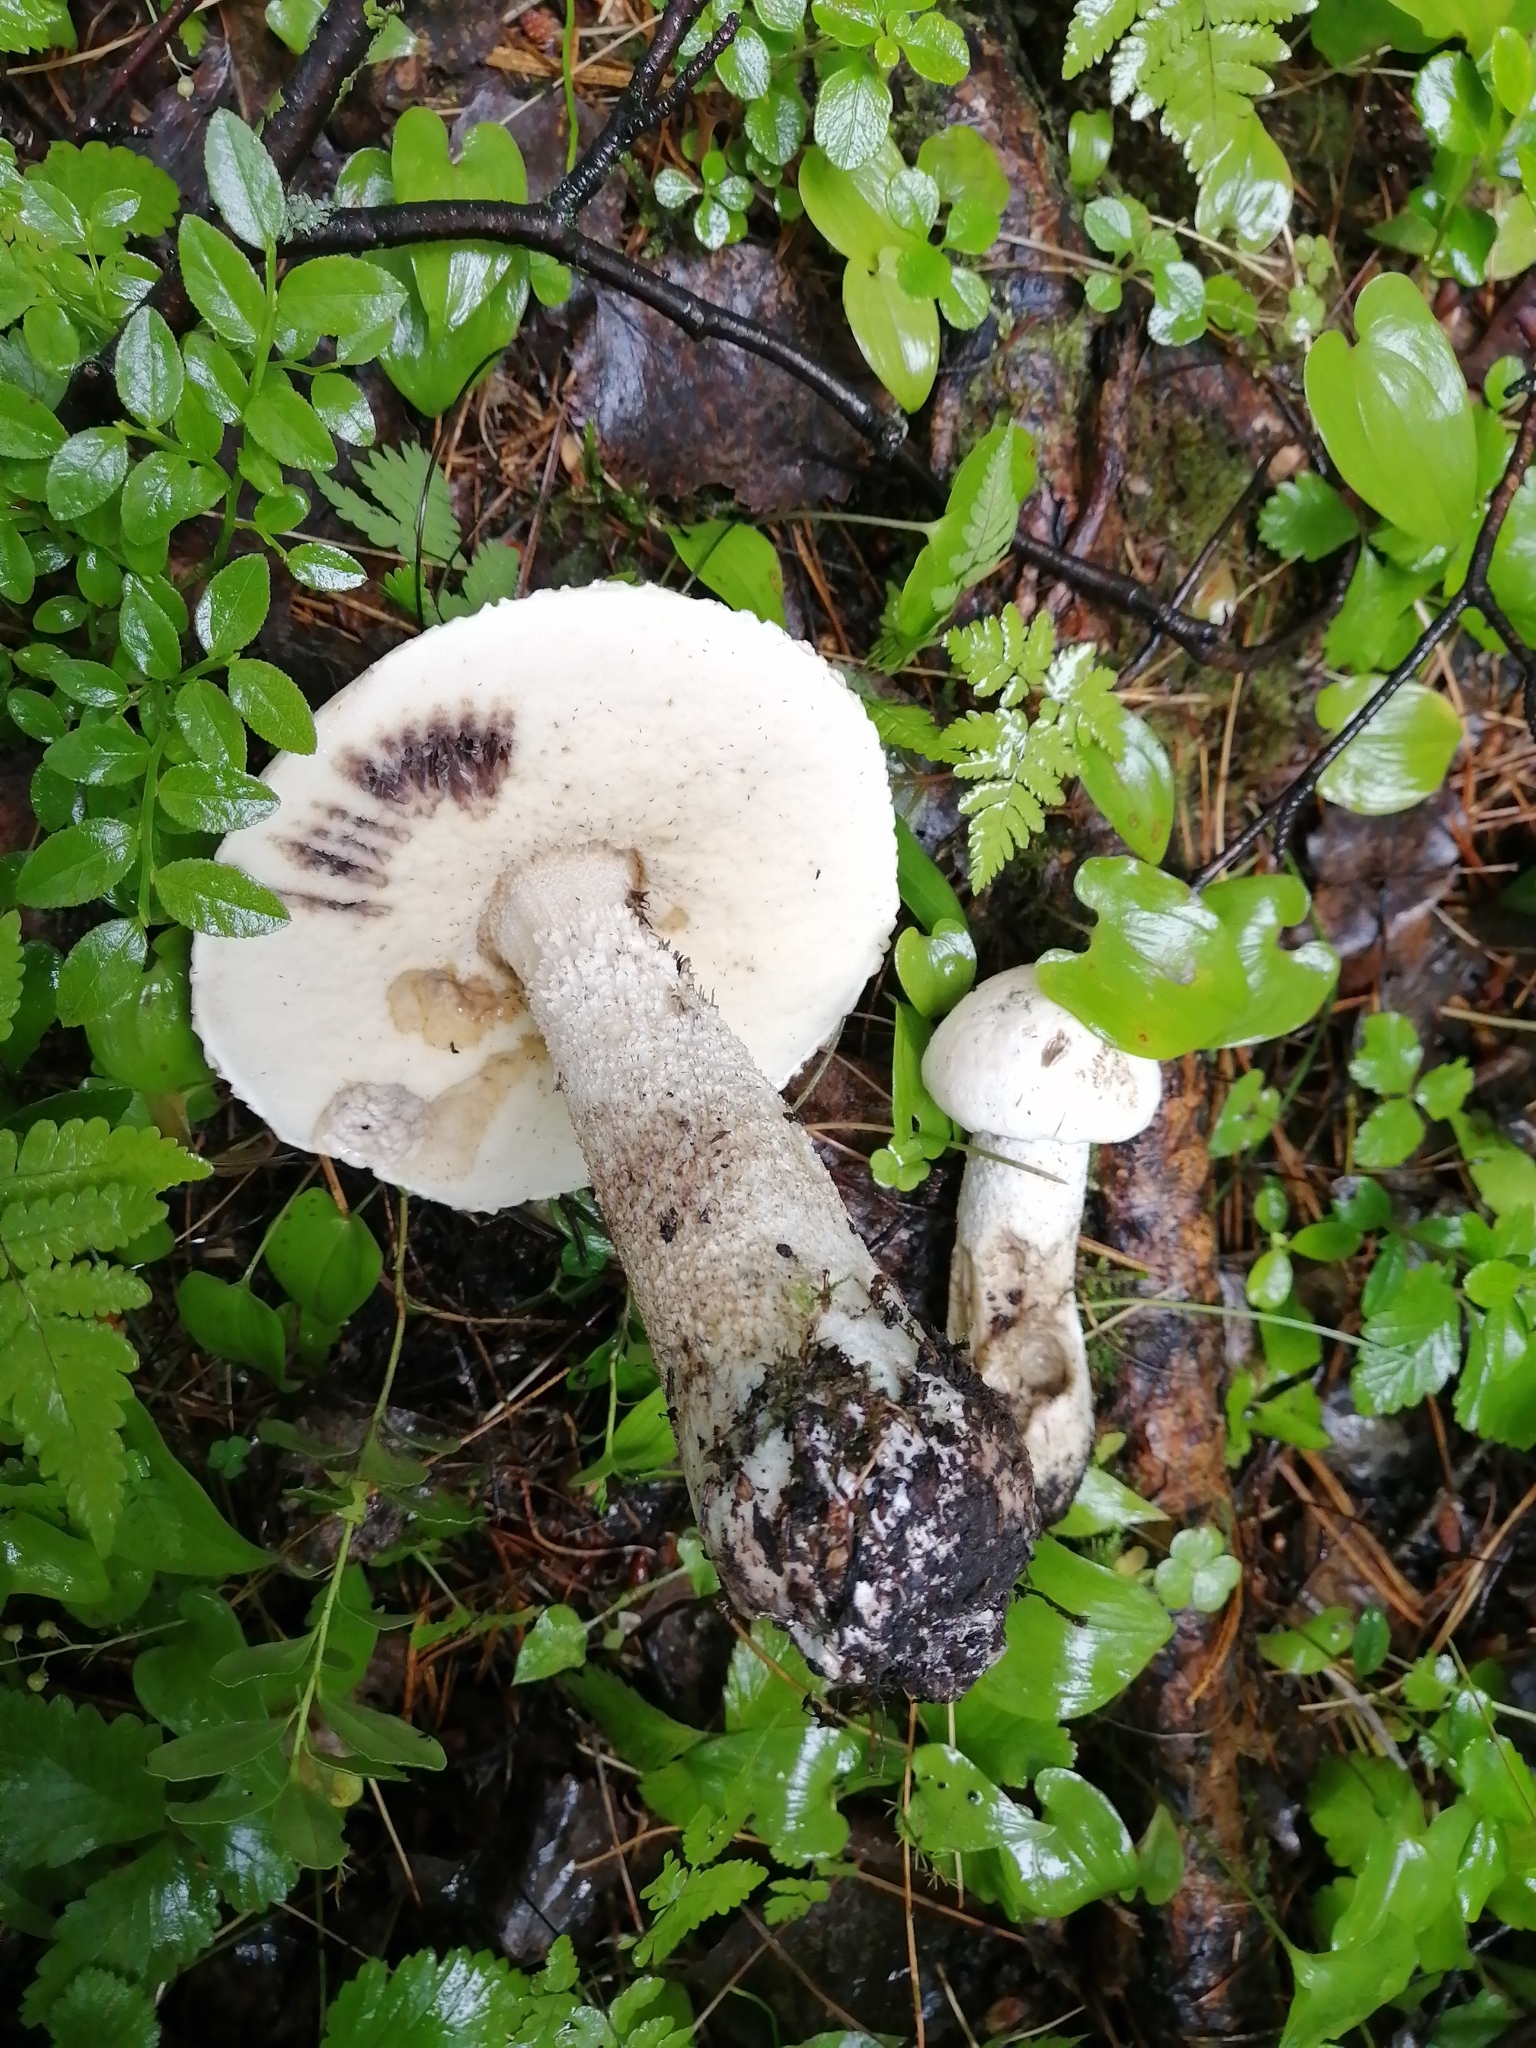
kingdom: Fungi
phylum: Basidiomycota
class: Agaricomycetes
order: Boletales
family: Boletaceae
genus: Leccinum
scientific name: Leccinum versipelle
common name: Orange birch bolete
